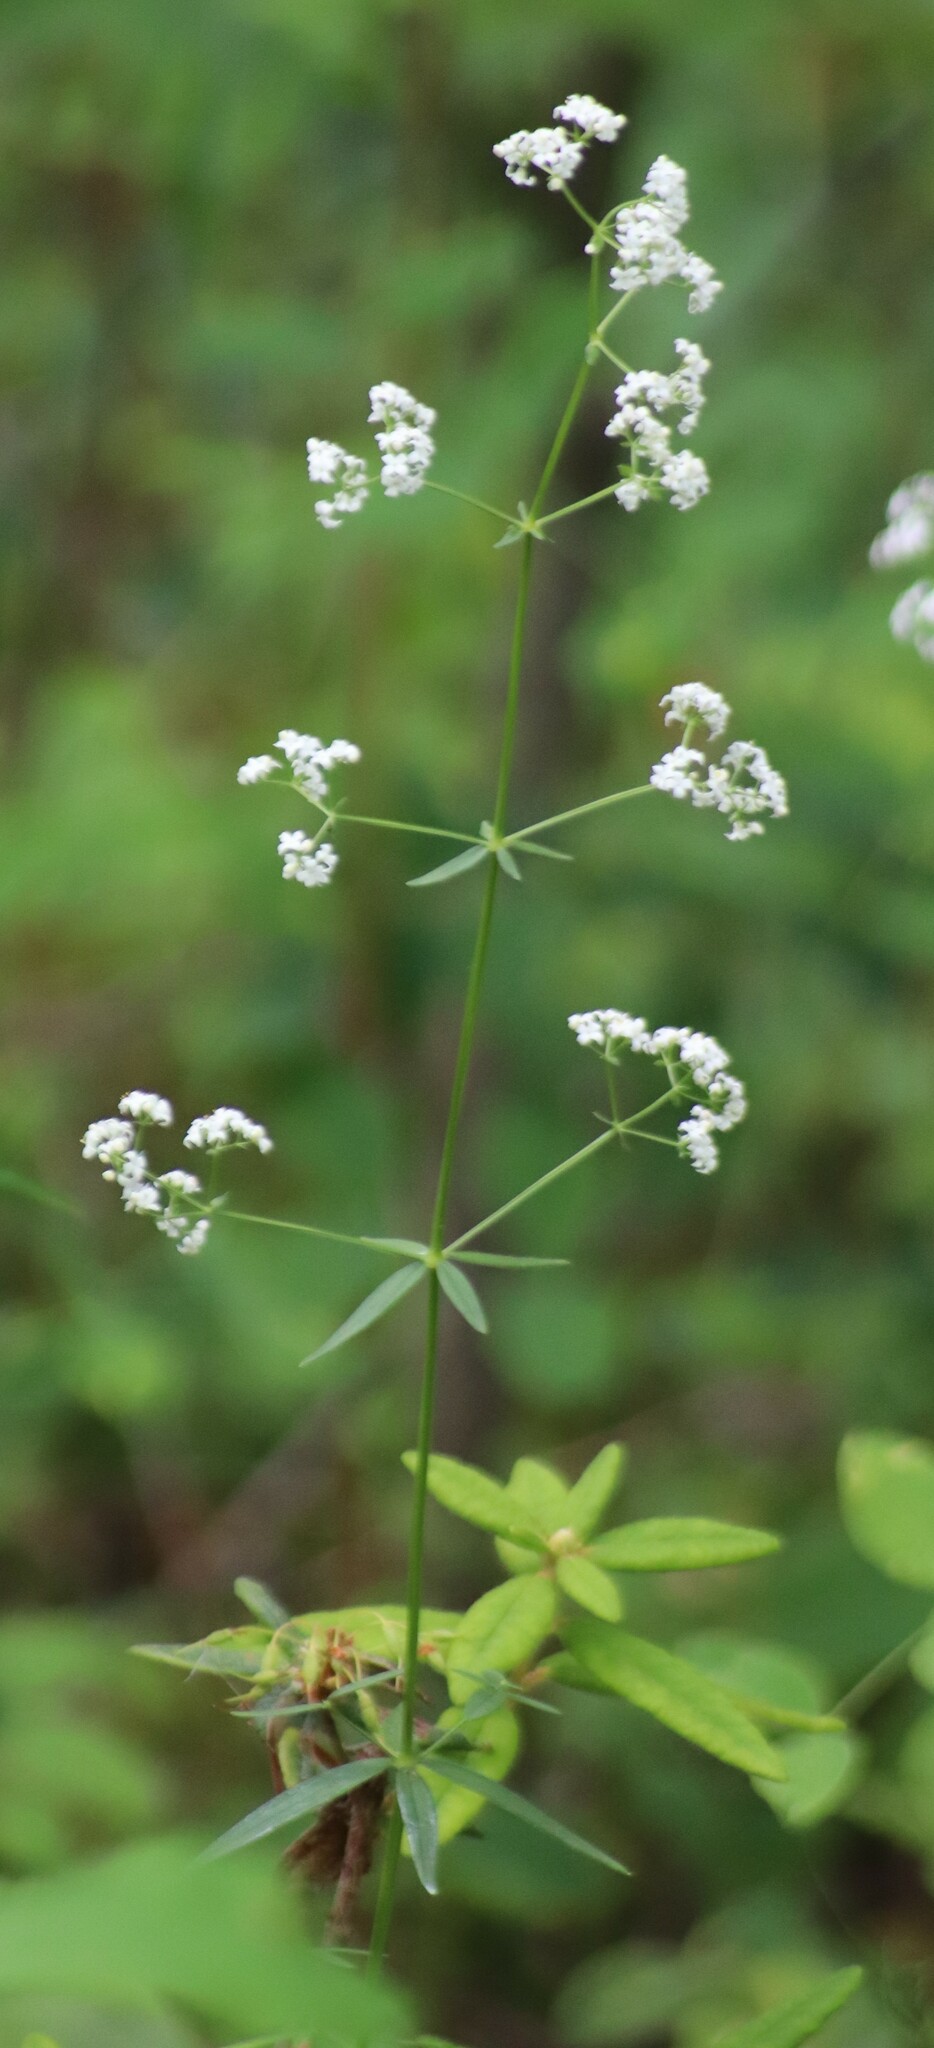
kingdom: Plantae
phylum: Tracheophyta
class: Magnoliopsida
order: Gentianales
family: Rubiaceae
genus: Galium
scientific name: Galium boreale
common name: Northern bedstraw
